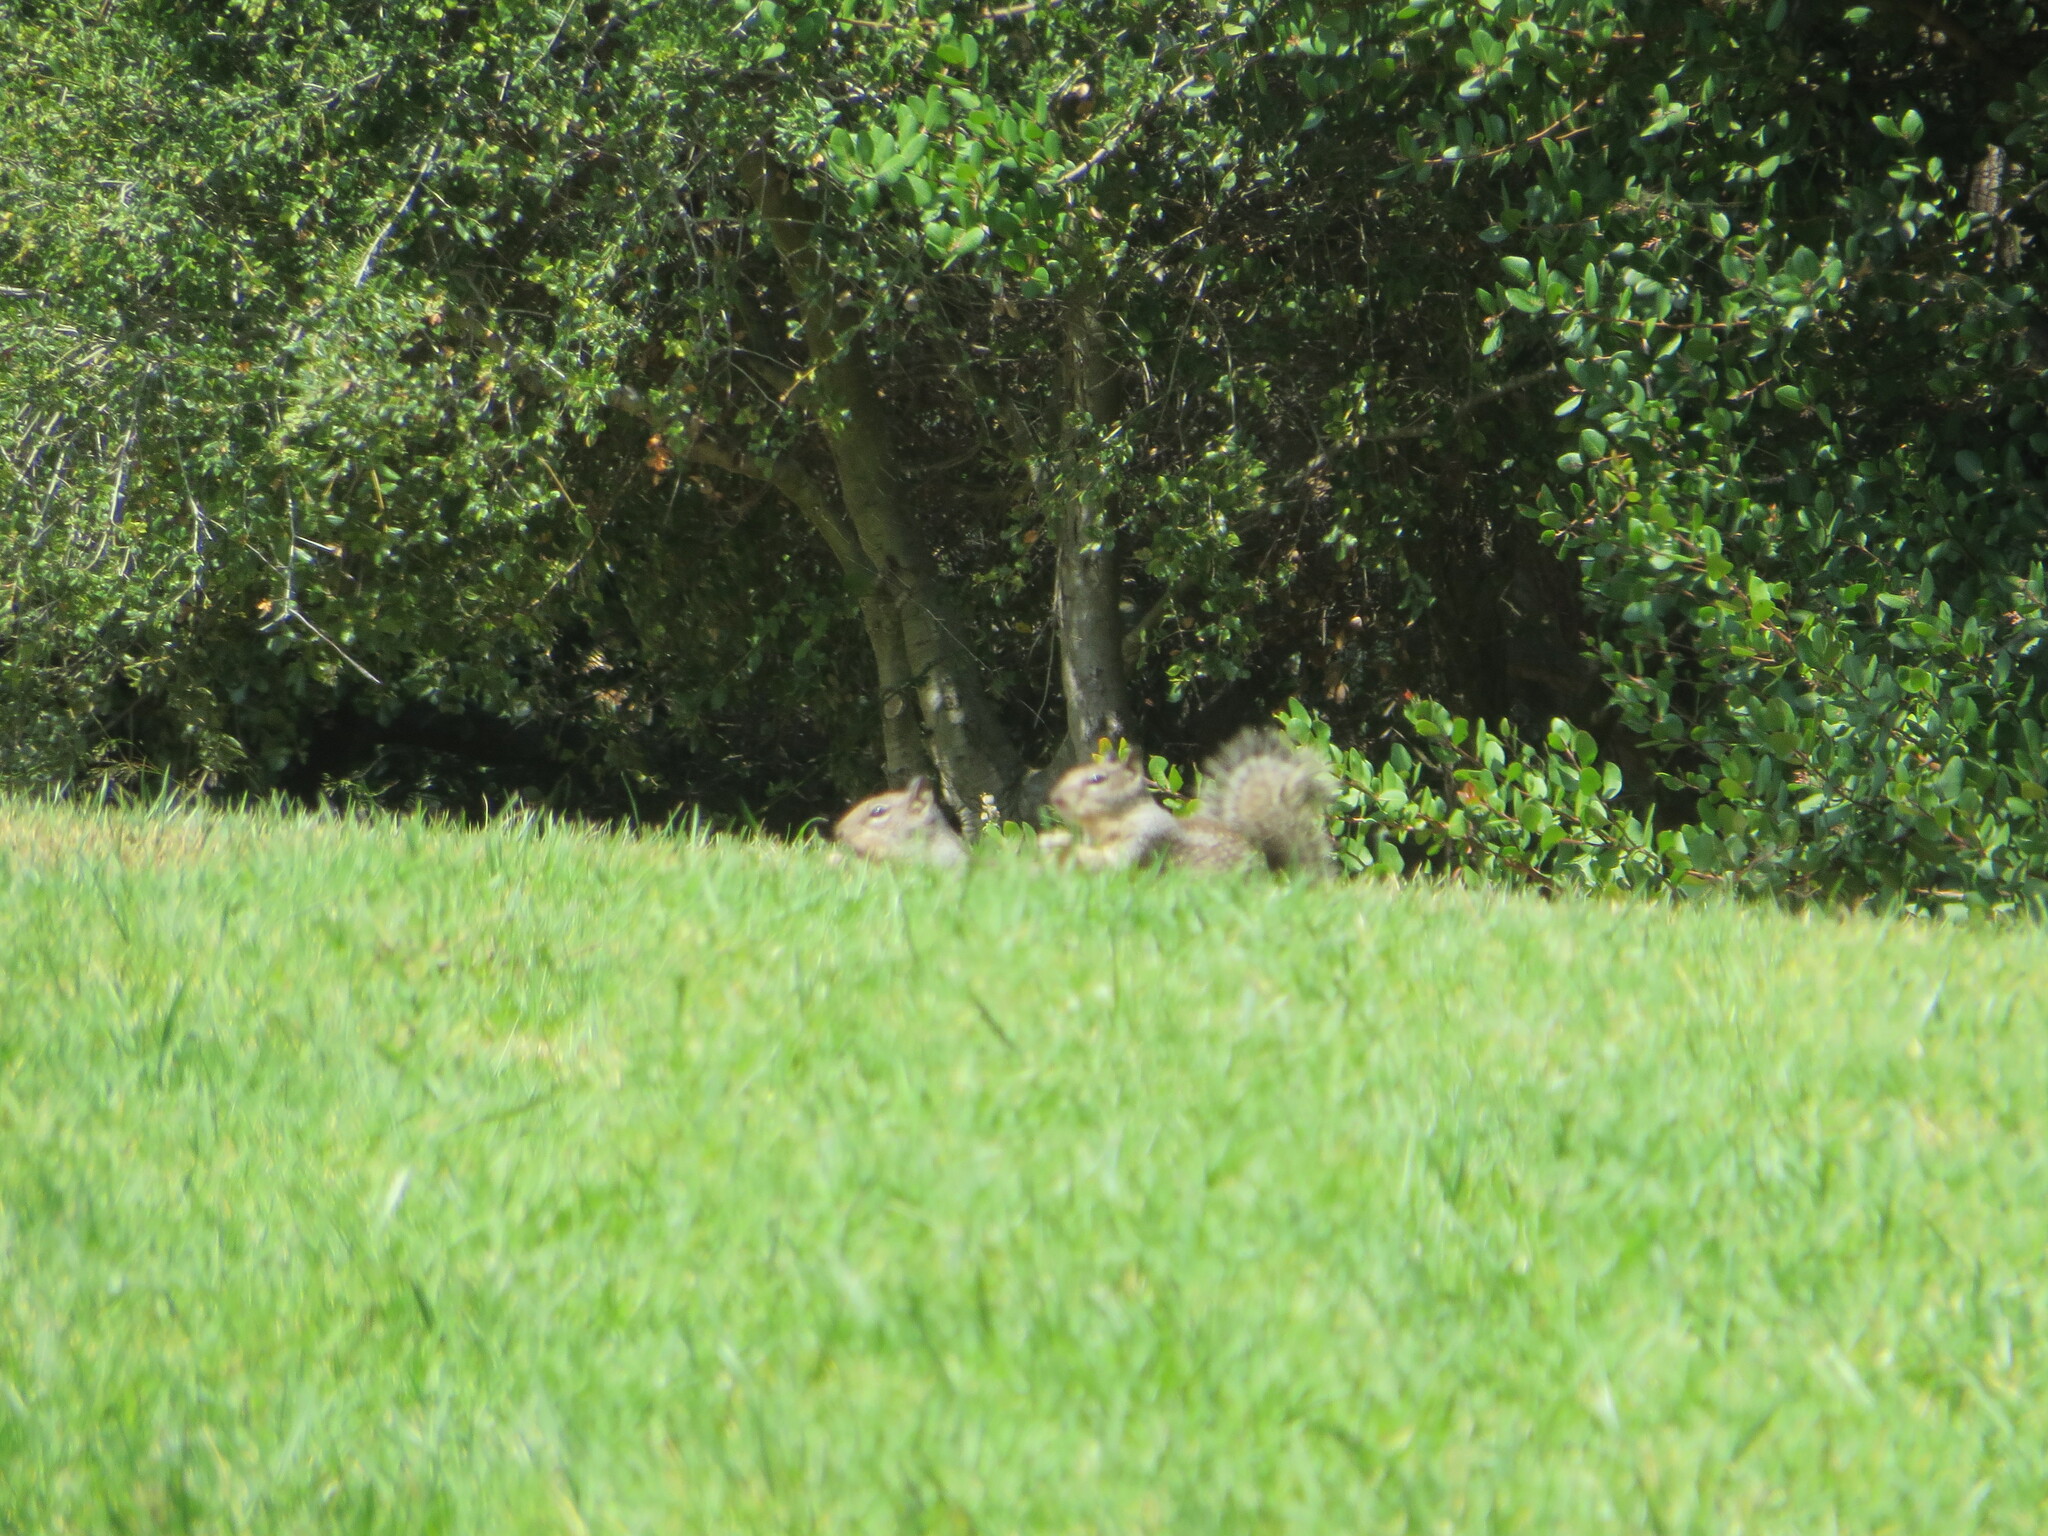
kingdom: Animalia
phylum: Chordata
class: Mammalia
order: Rodentia
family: Sciuridae
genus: Otospermophilus
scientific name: Otospermophilus beecheyi
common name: California ground squirrel
